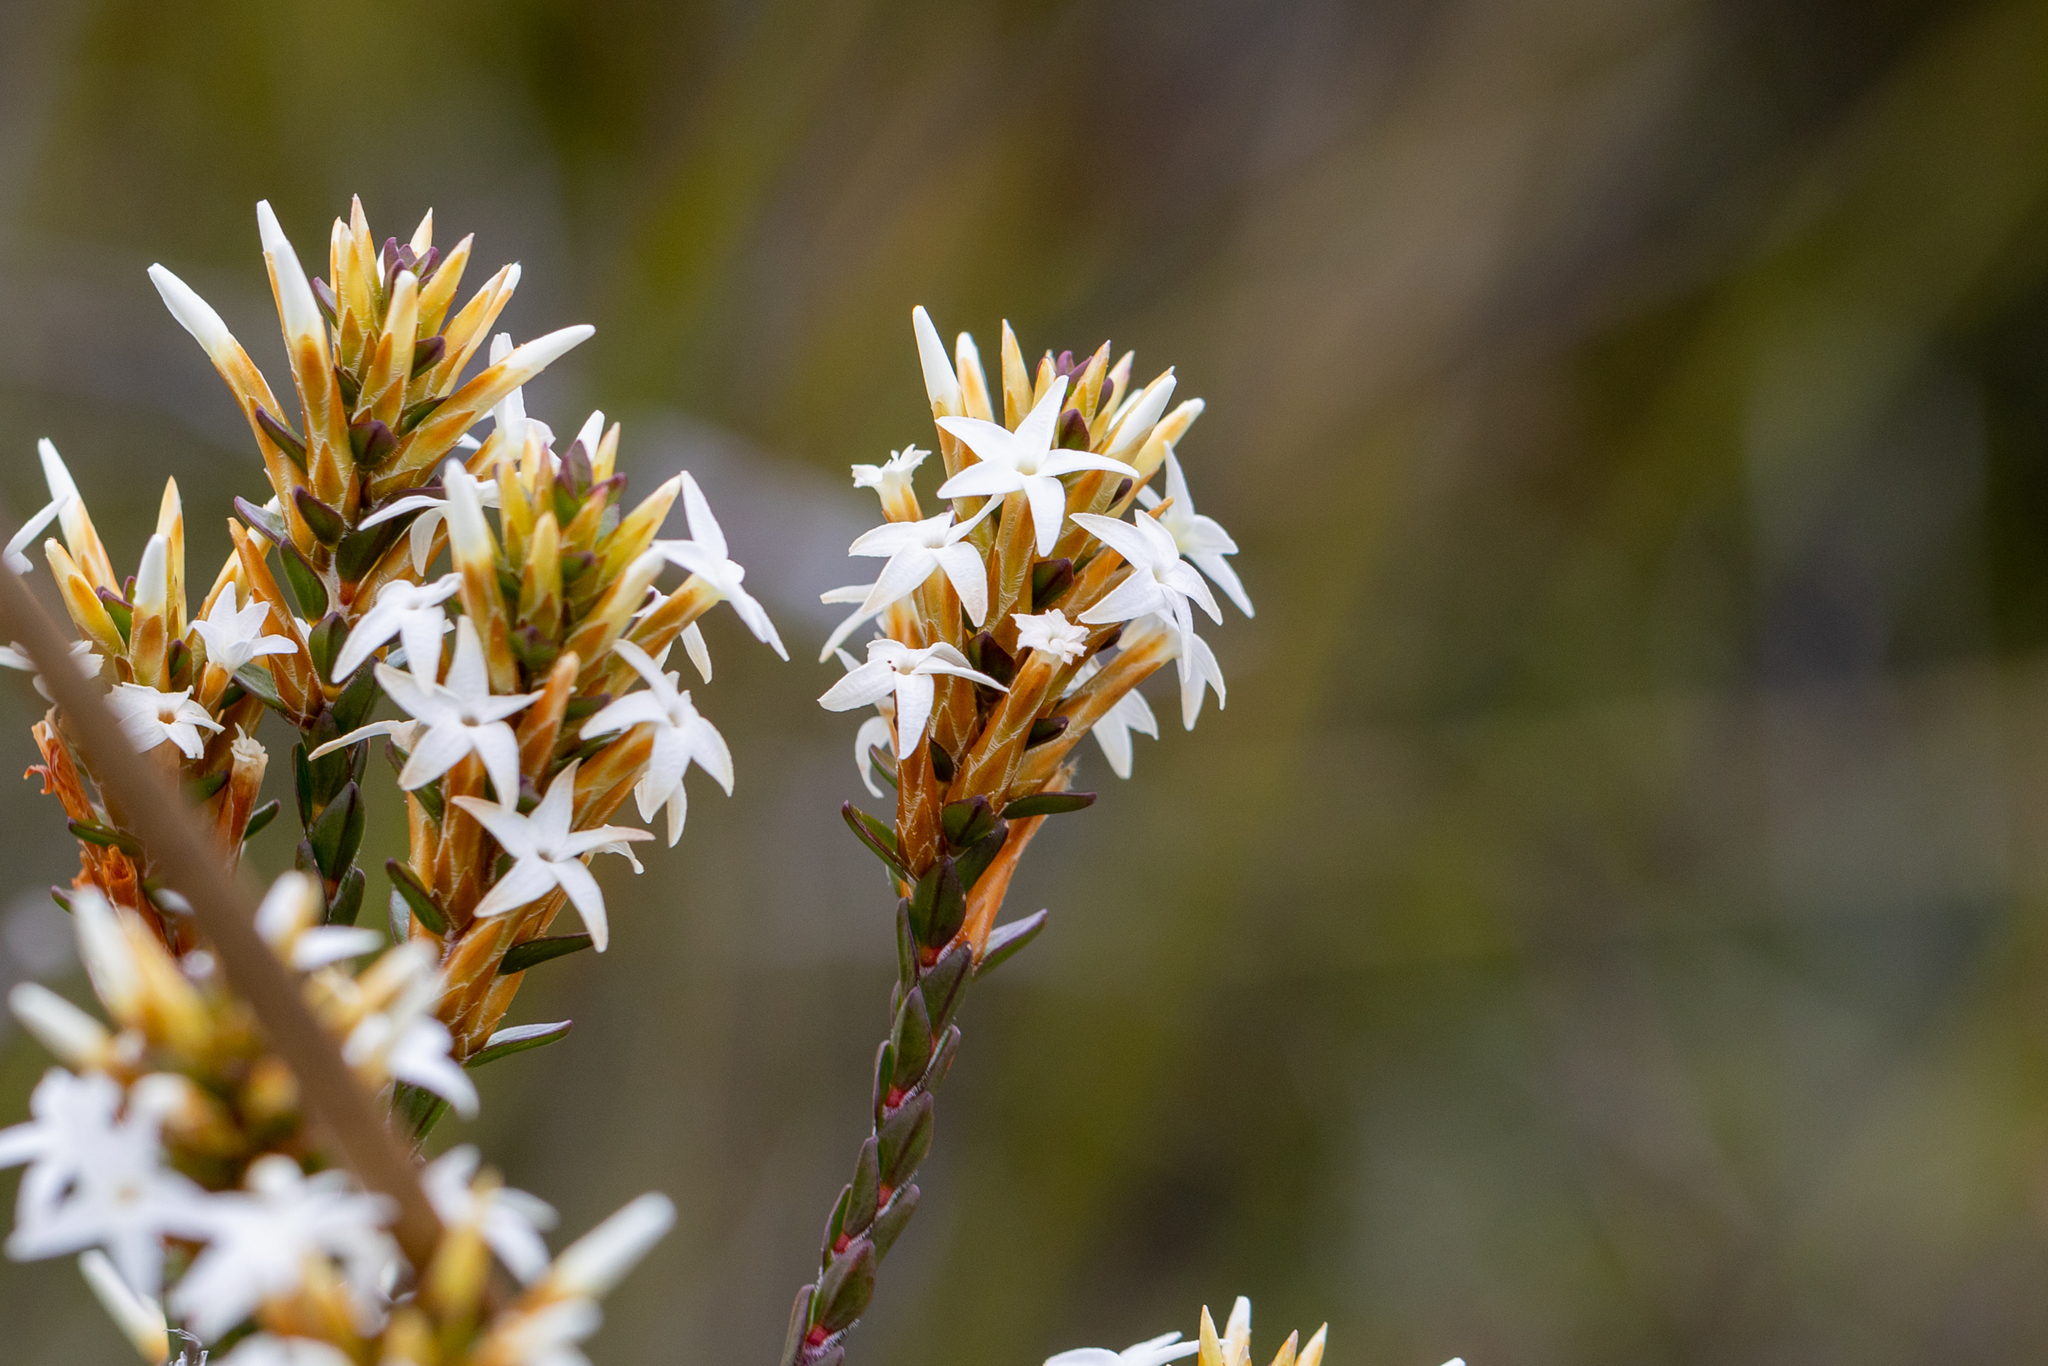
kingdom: Plantae
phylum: Tracheophyta
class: Magnoliopsida
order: Ericales
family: Ericaceae
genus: Lysinema
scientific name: Lysinema ciliatum
